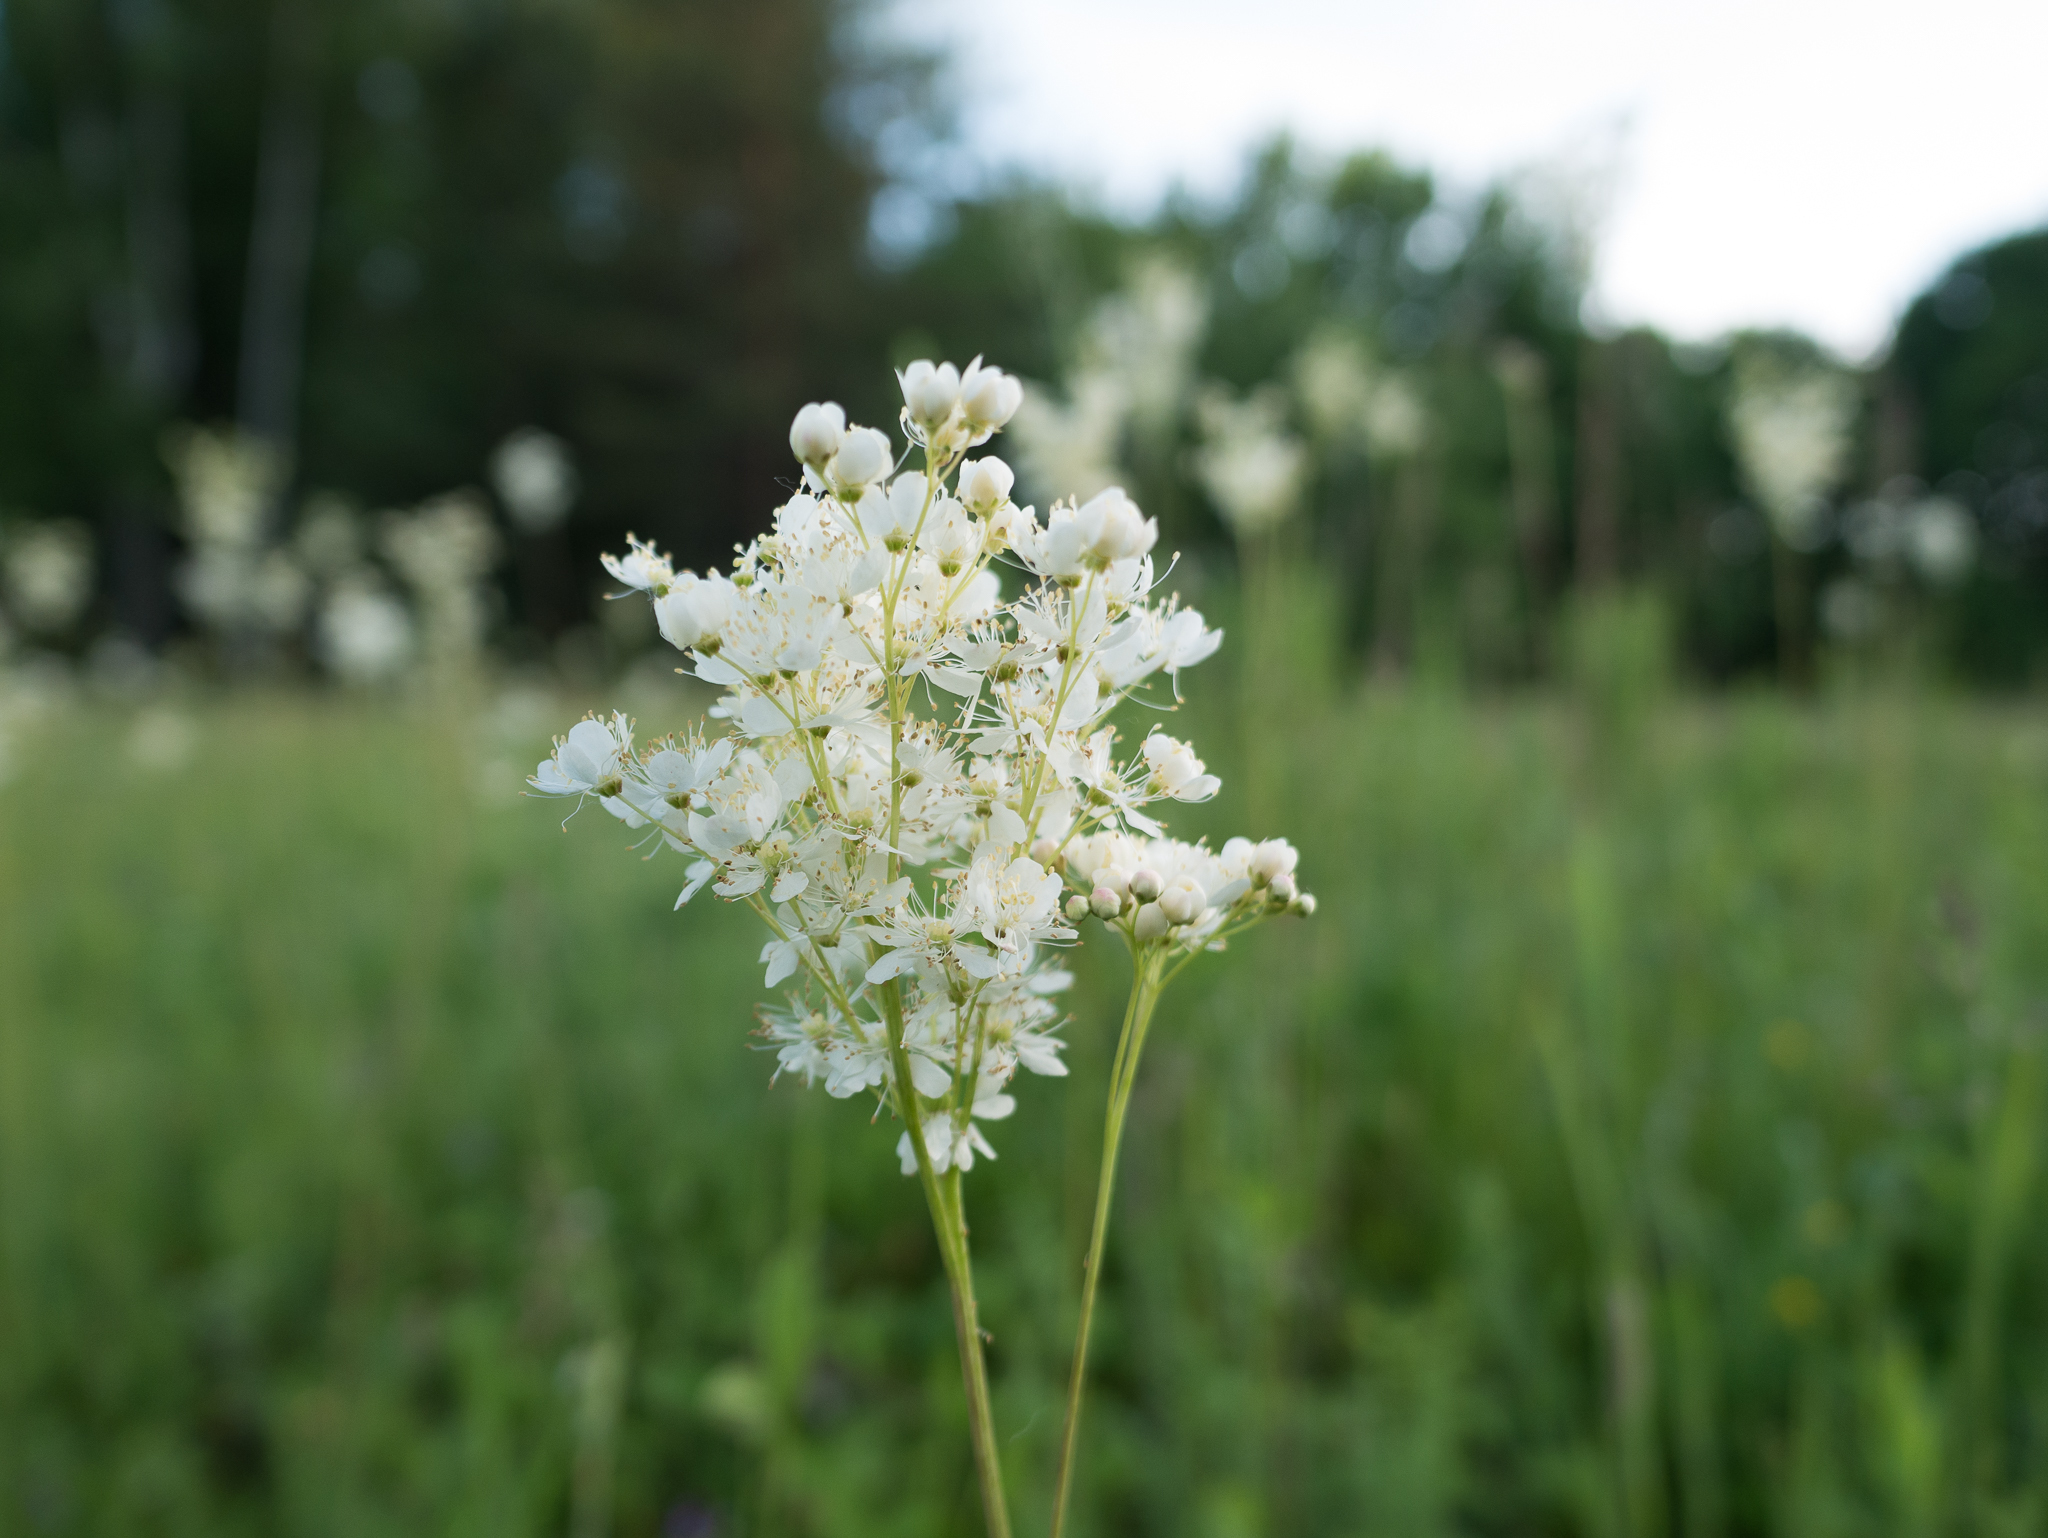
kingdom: Plantae
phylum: Tracheophyta
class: Magnoliopsida
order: Rosales
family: Rosaceae
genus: Filipendula
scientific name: Filipendula vulgaris
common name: Dropwort
